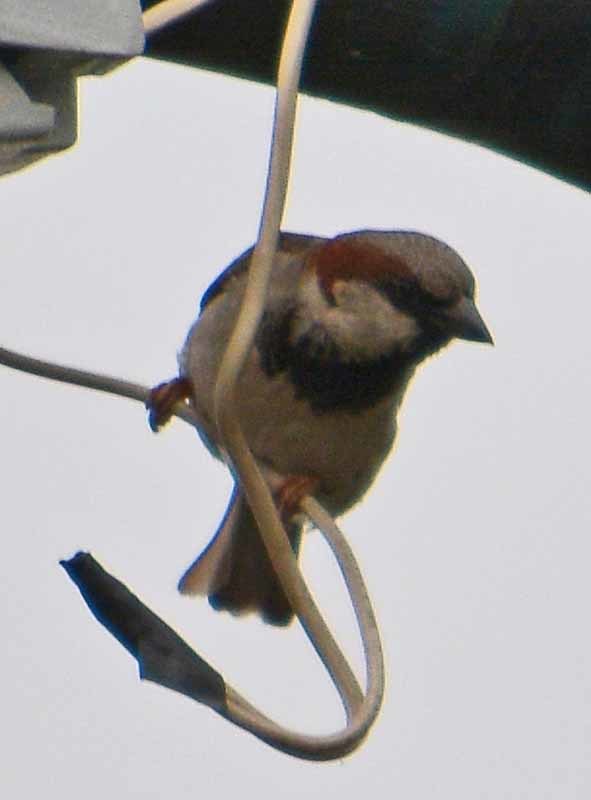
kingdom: Animalia
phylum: Chordata
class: Aves
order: Passeriformes
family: Passeridae
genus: Passer
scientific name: Passer domesticus
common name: House sparrow
